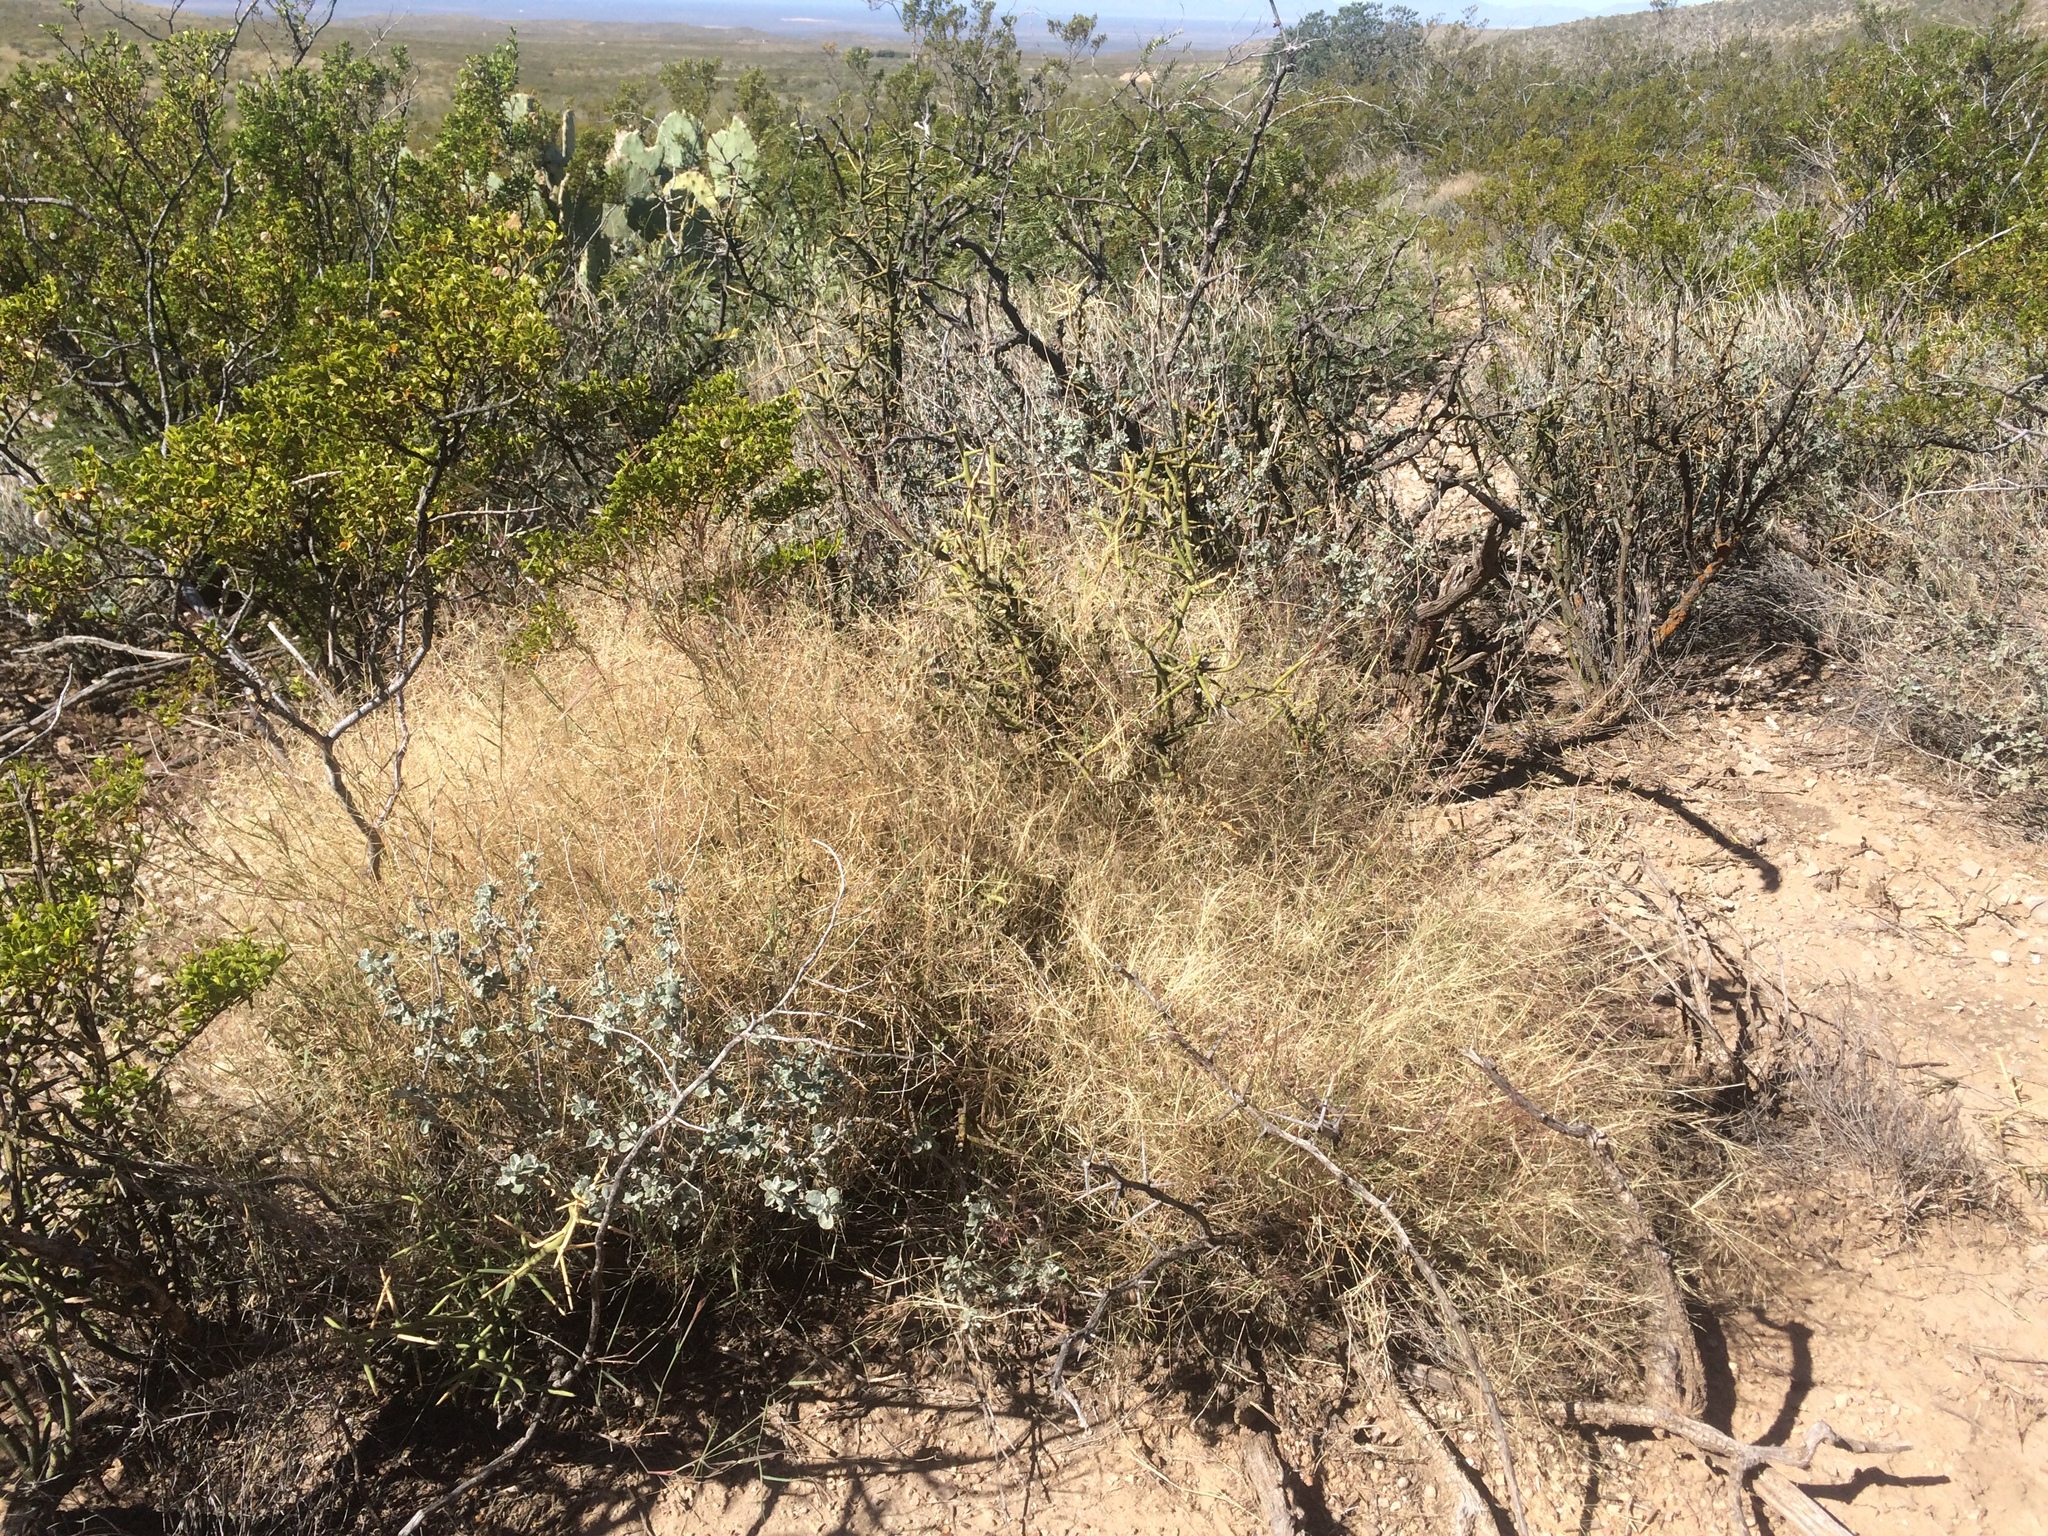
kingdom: Plantae
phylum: Tracheophyta
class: Liliopsida
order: Poales
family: Poaceae
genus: Muhlenbergia
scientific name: Muhlenbergia porteri
